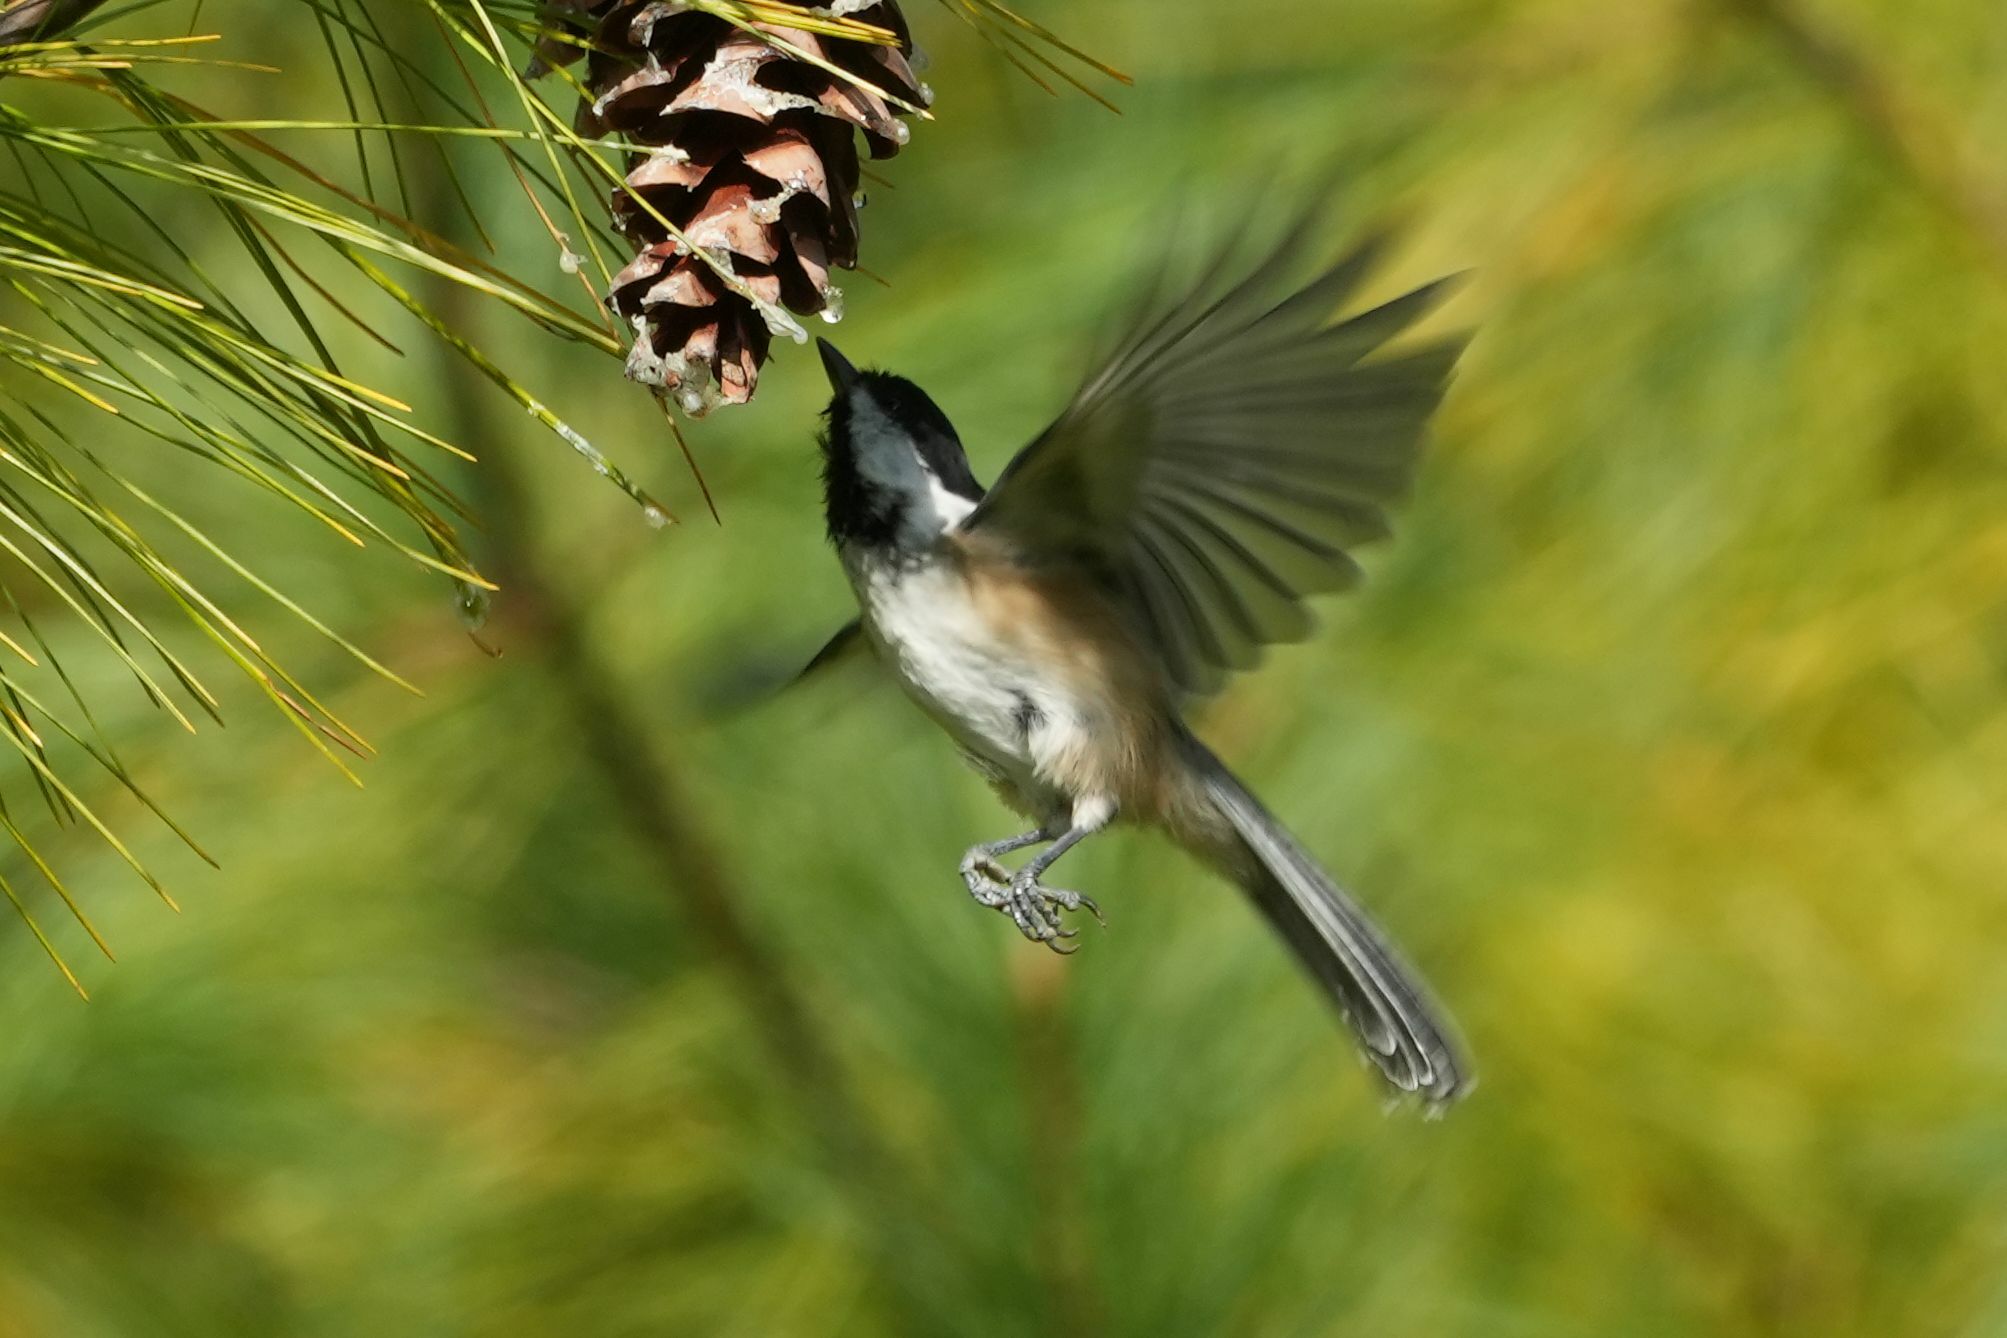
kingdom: Animalia
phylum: Chordata
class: Aves
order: Passeriformes
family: Paridae
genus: Poecile
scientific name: Poecile atricapillus
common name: Black-capped chickadee
